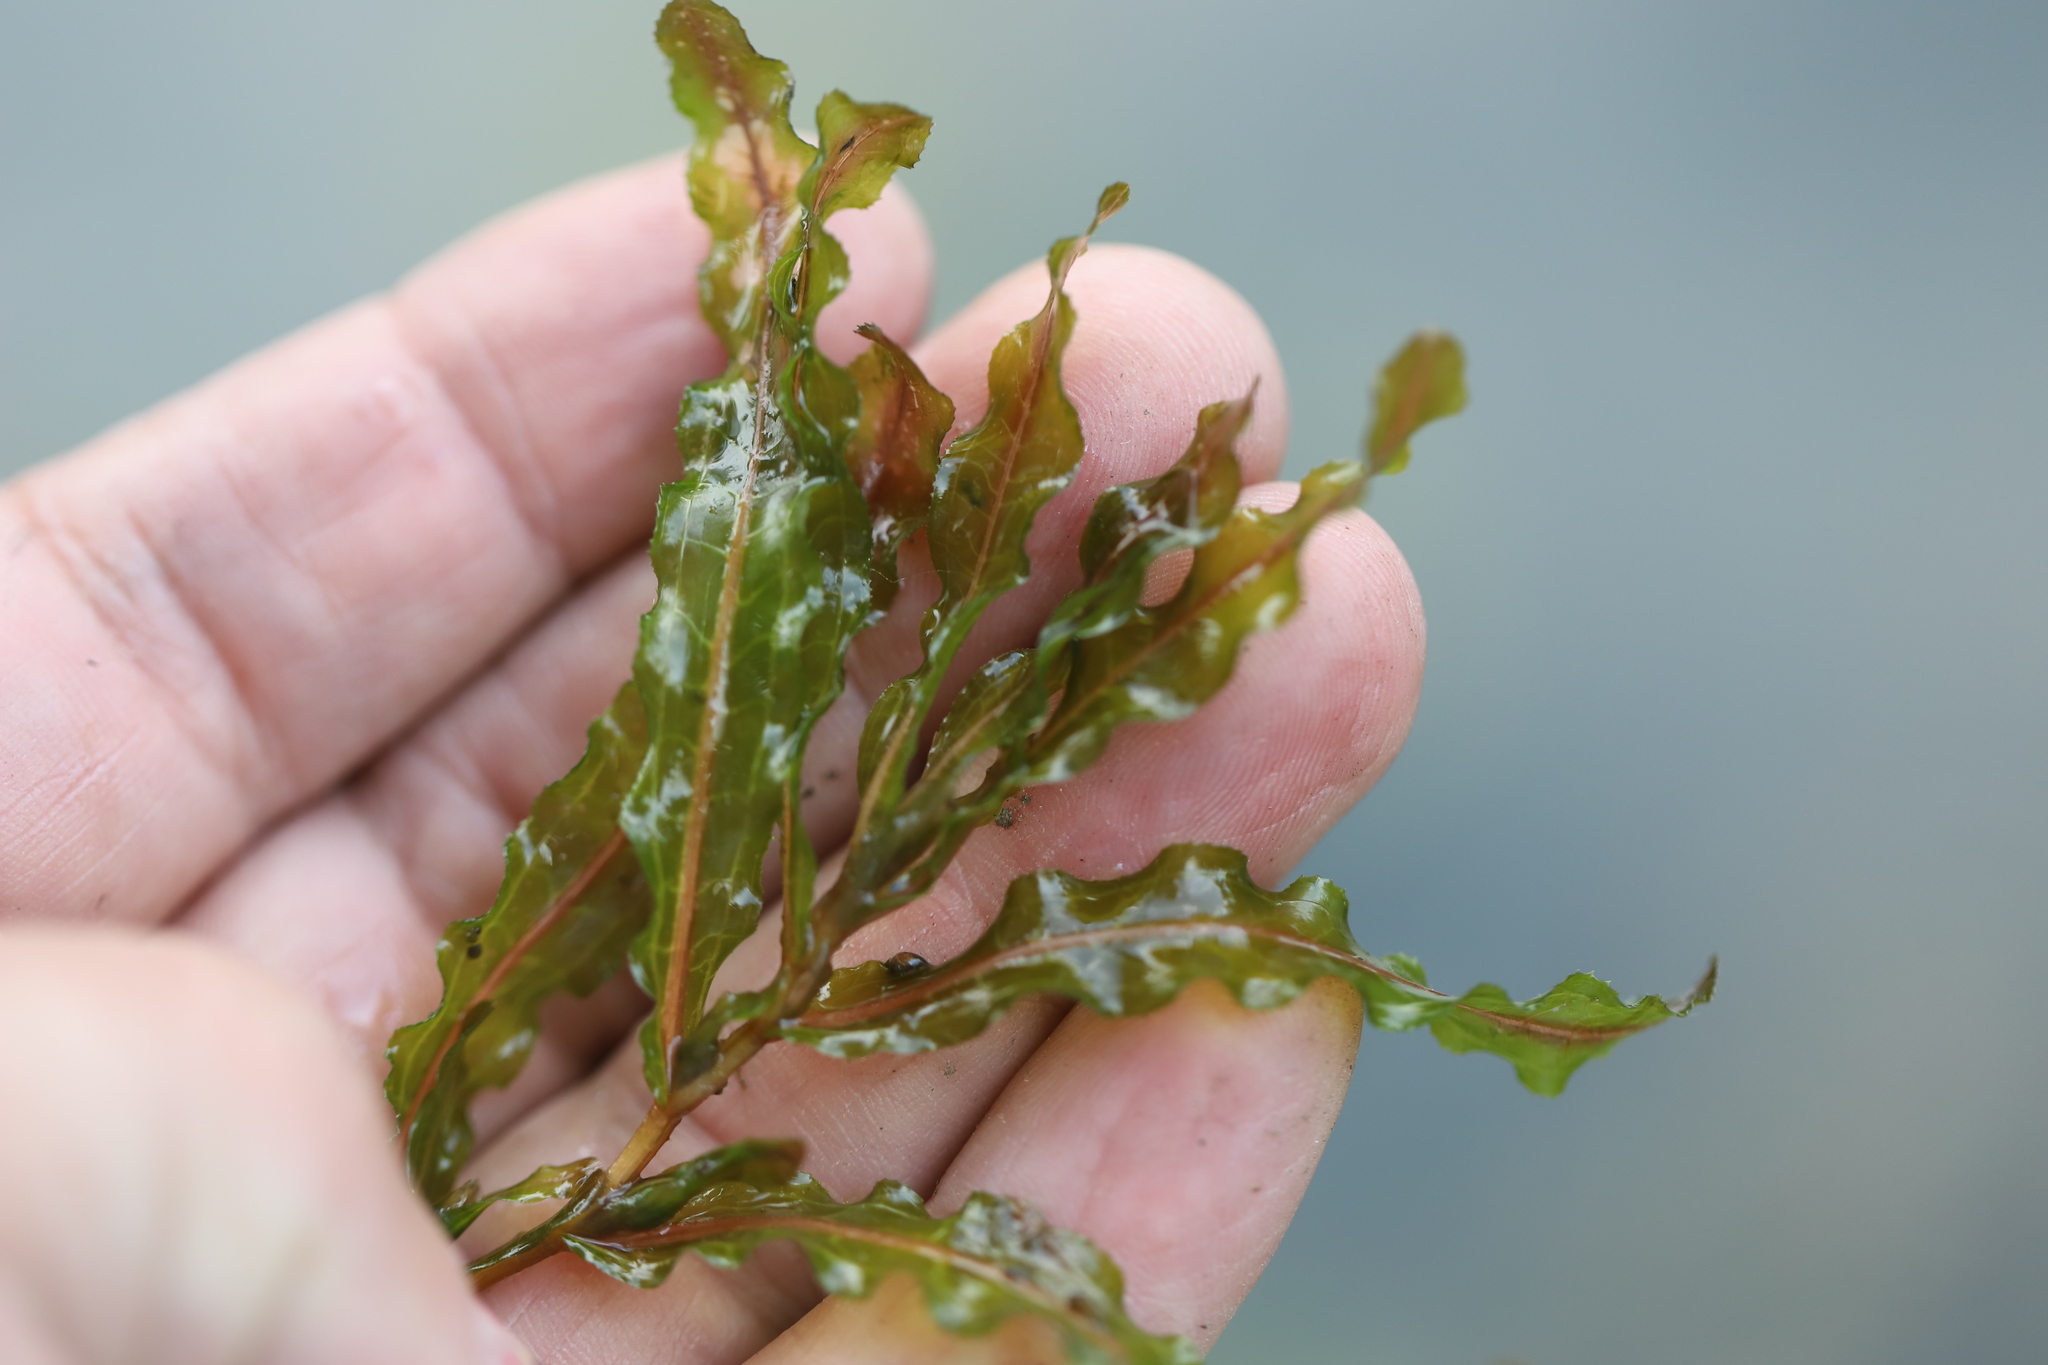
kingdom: Plantae
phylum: Tracheophyta
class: Liliopsida
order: Alismatales
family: Potamogetonaceae
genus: Potamogeton
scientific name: Potamogeton crispus
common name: Curled pondweed
